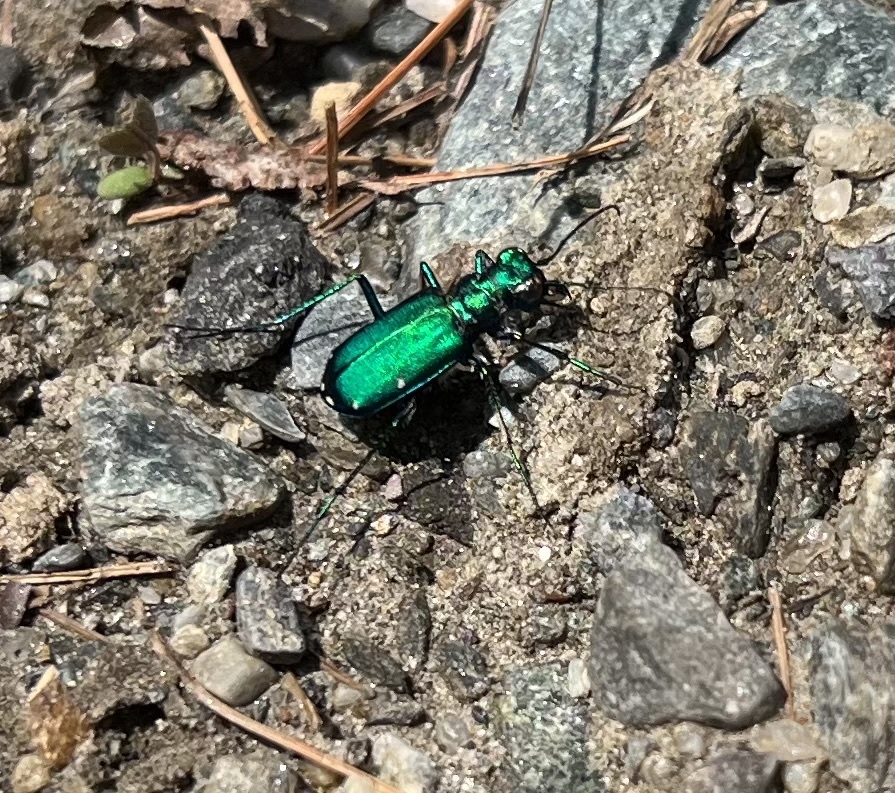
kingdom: Animalia
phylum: Arthropoda
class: Insecta
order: Coleoptera
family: Carabidae
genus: Cicindela
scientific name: Cicindela sexguttata
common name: Six-spotted tiger beetle
